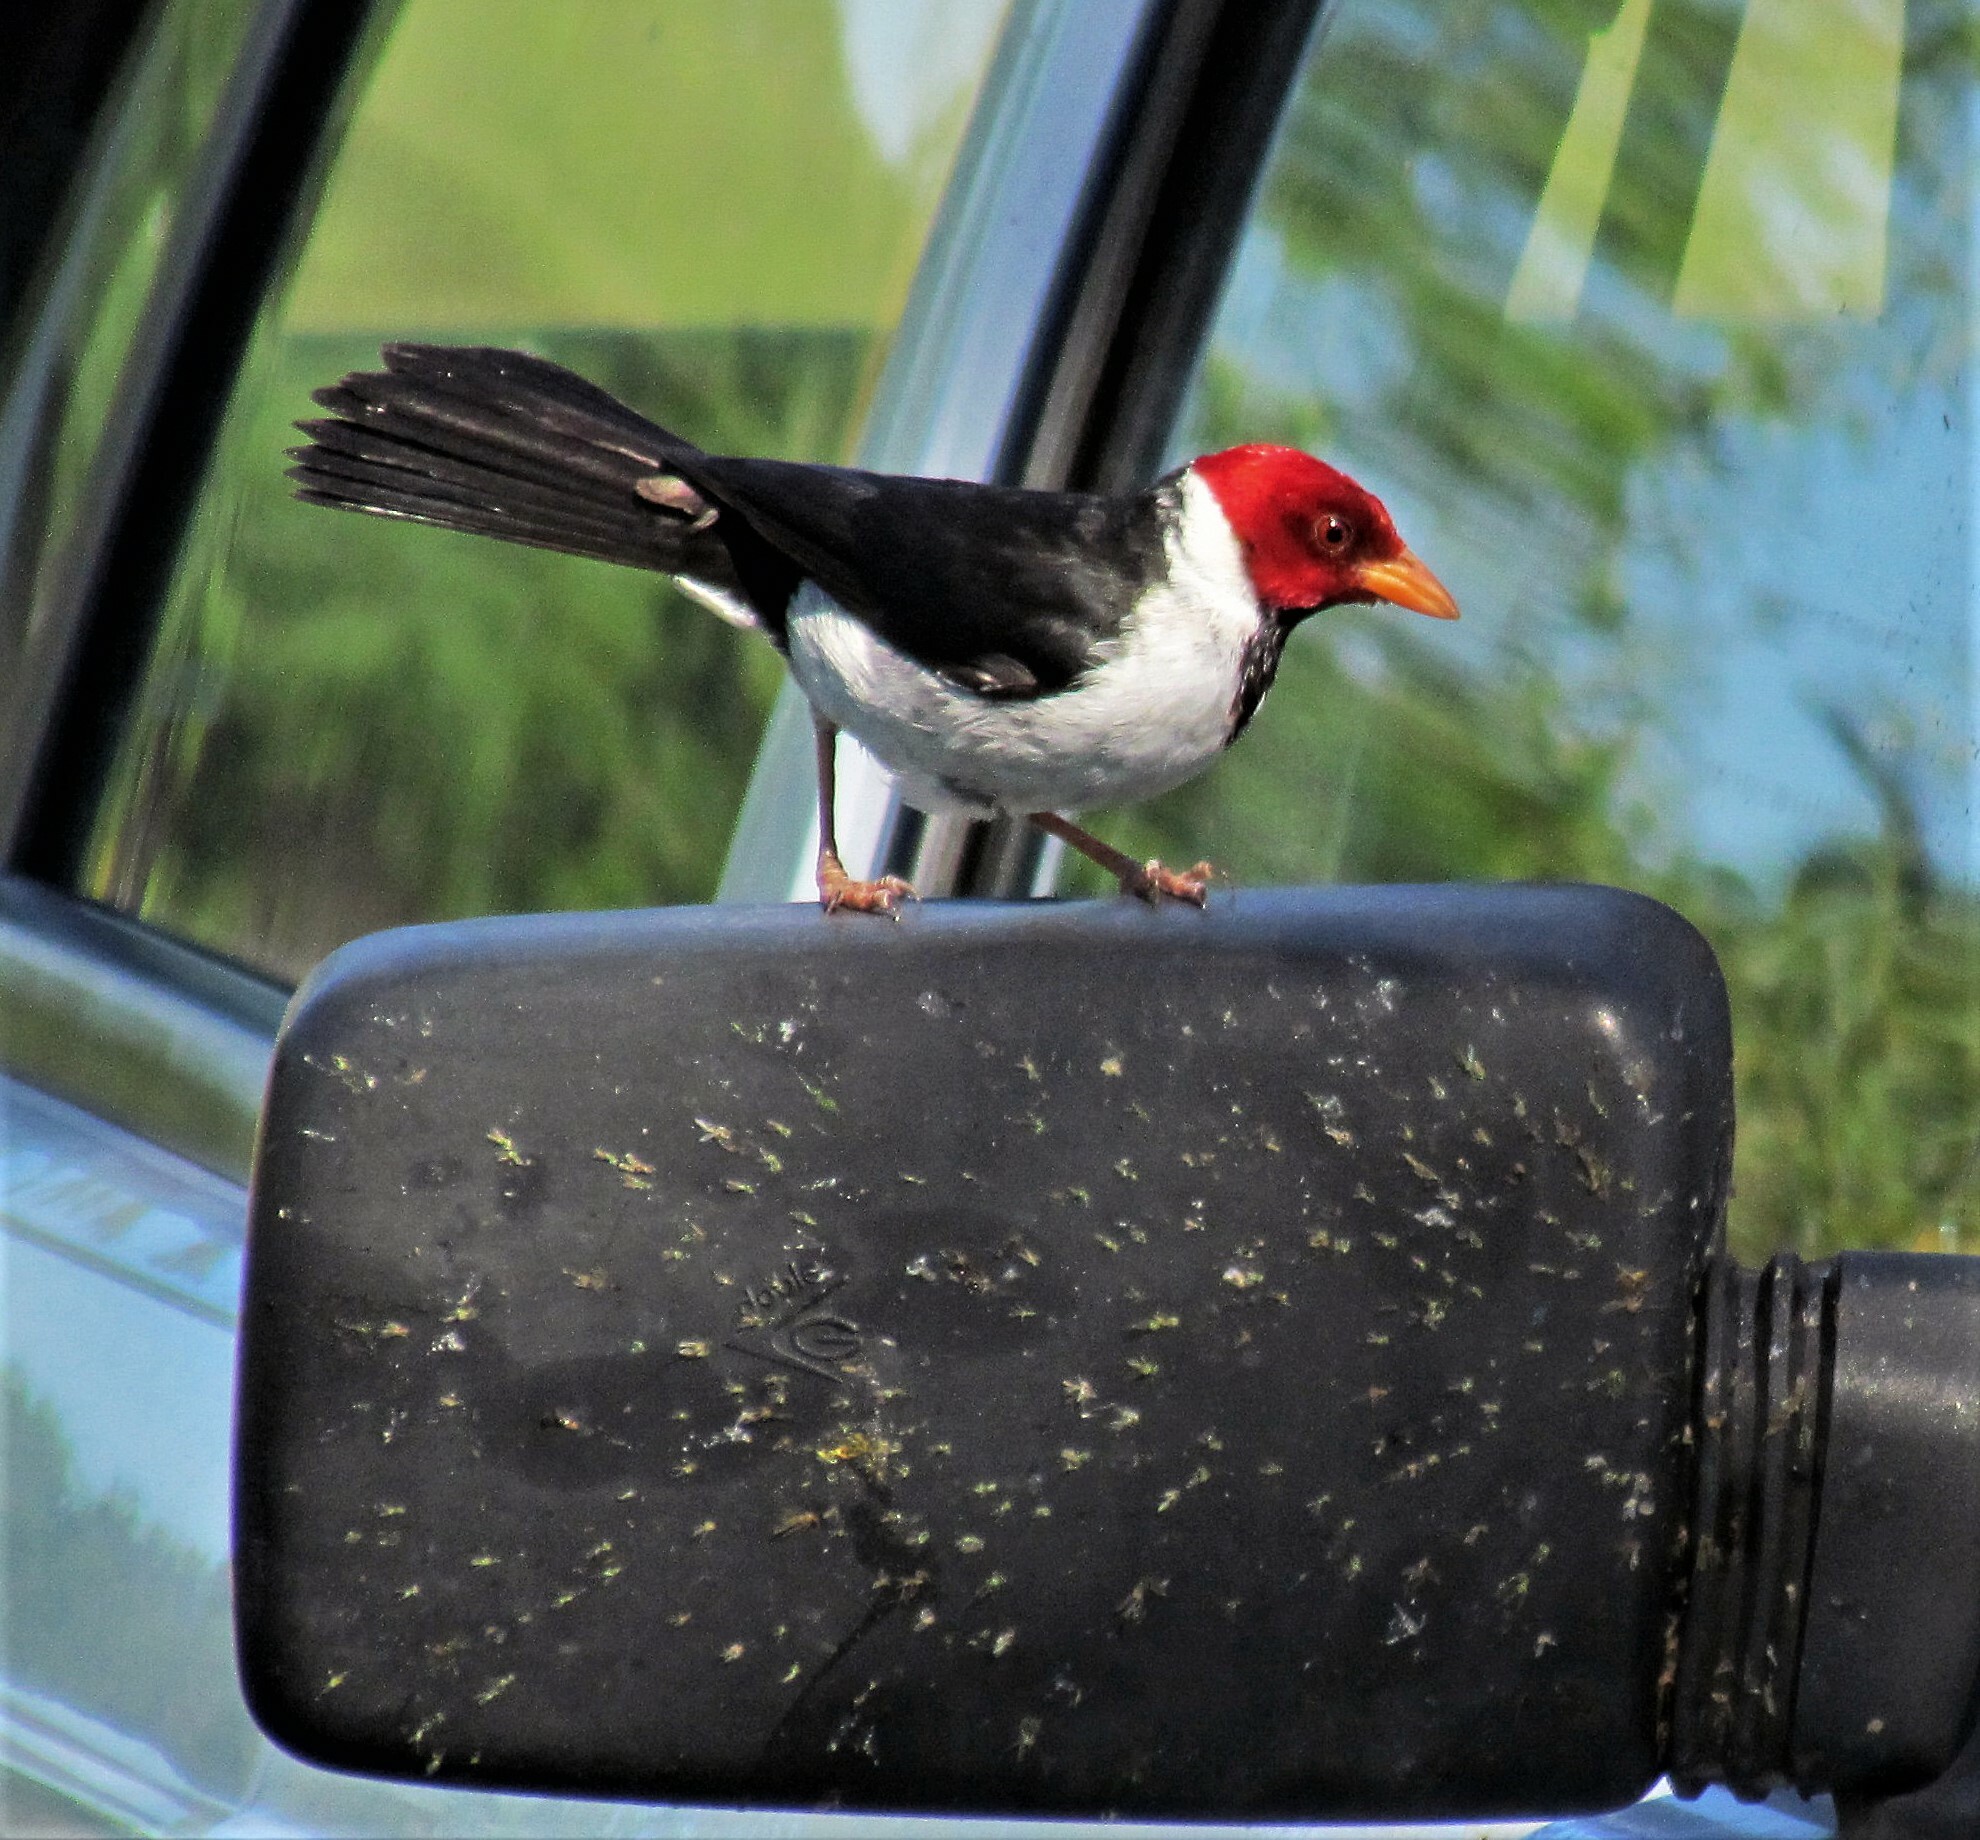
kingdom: Animalia
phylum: Chordata
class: Aves
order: Passeriformes
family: Thraupidae
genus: Paroaria
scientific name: Paroaria capitata
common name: Yellow-billed cardinal
